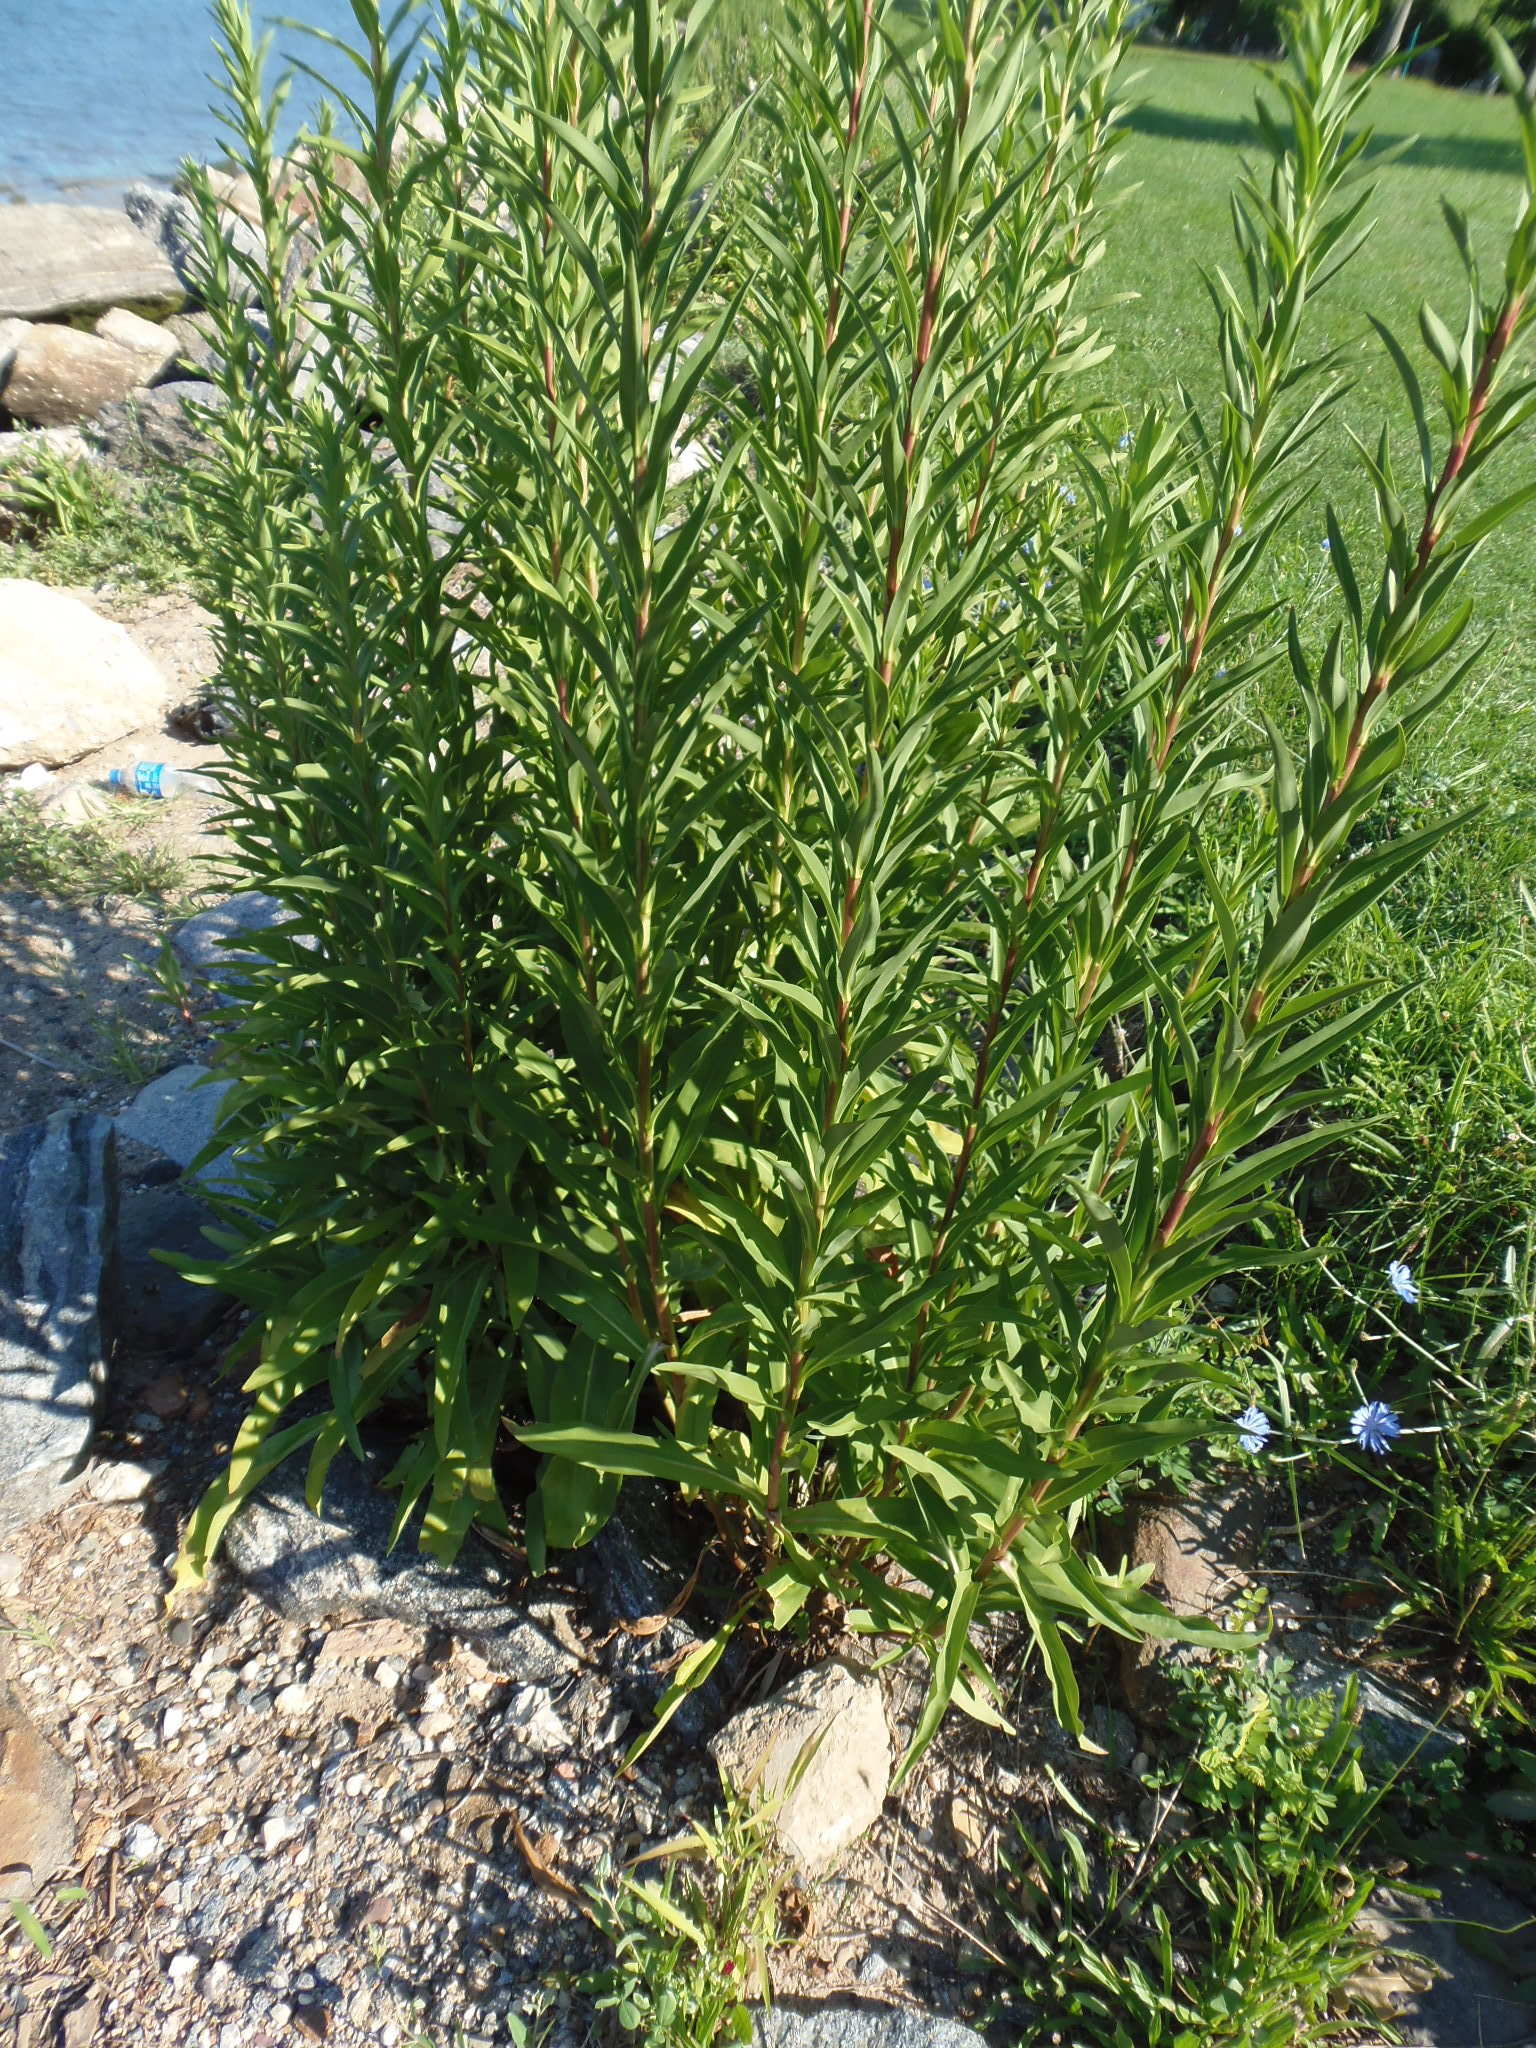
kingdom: Plantae
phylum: Tracheophyta
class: Magnoliopsida
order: Asterales
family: Asteraceae
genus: Solidago
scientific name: Solidago sempervirens
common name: Salt-marsh goldenrod
